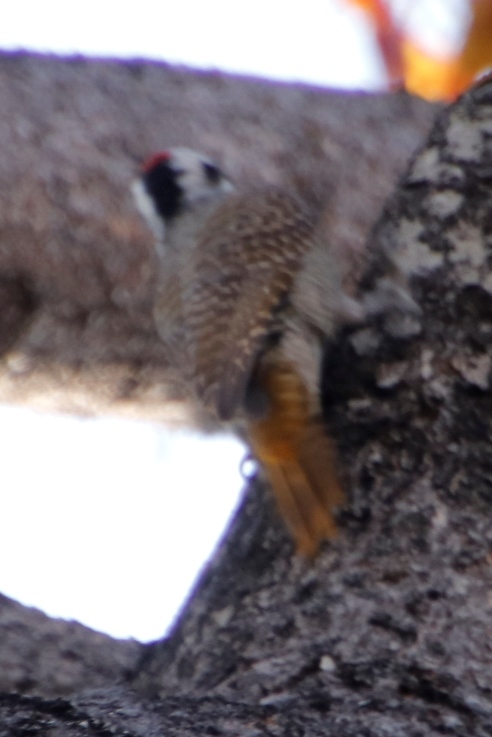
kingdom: Animalia
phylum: Chordata
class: Aves
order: Piciformes
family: Picidae
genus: Chloropicus
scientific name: Chloropicus namaquus
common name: Bearded woodpecker
